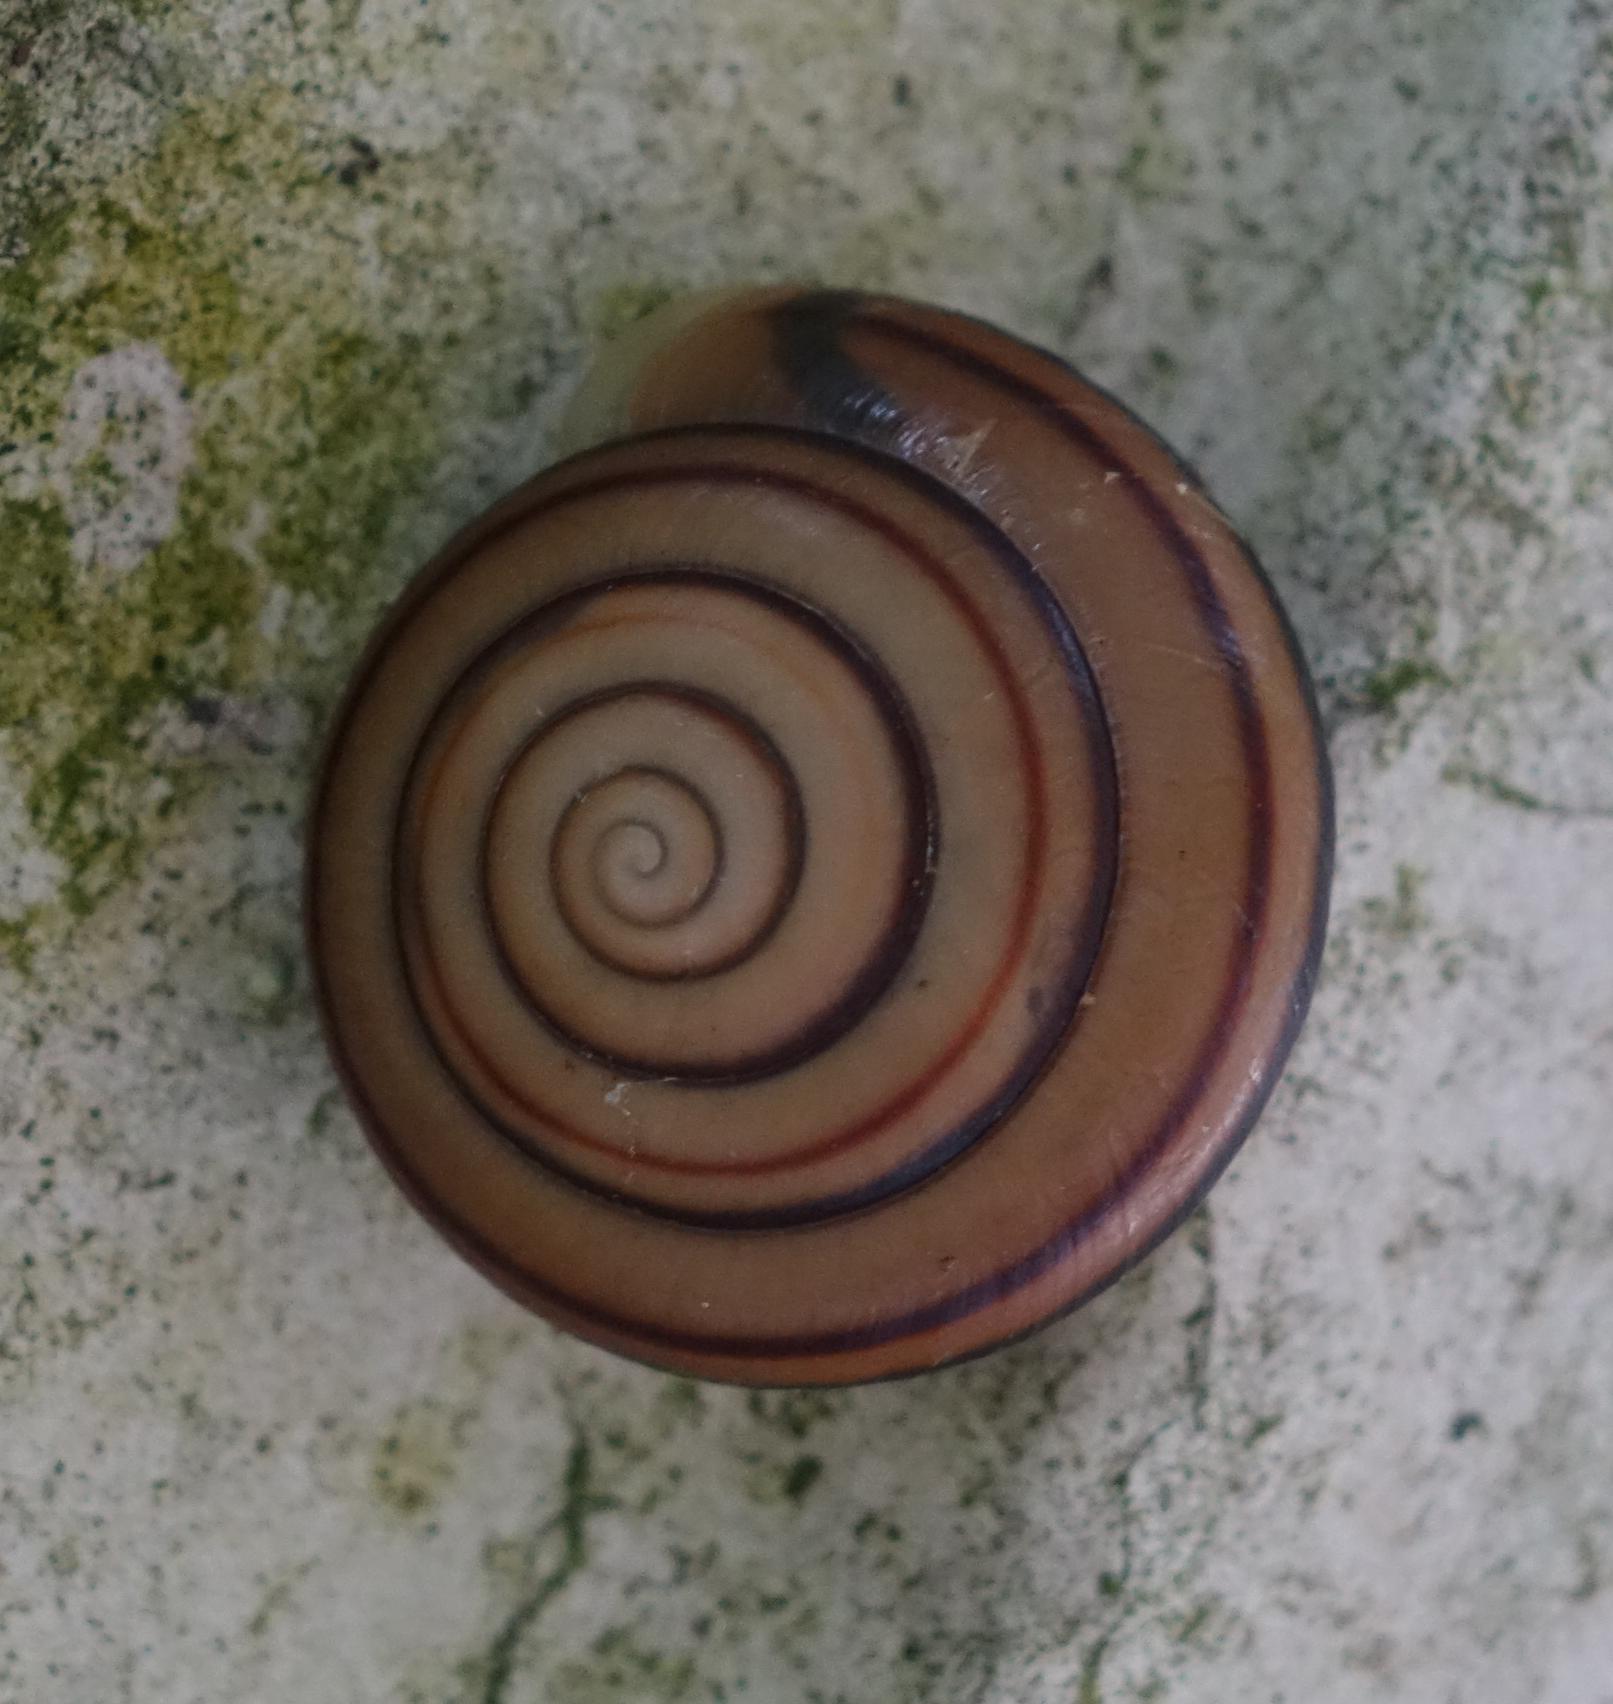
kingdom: Animalia
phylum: Mollusca
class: Gastropoda
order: Stylommatophora
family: Camaenidae
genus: Pancala
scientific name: Pancala batanica
